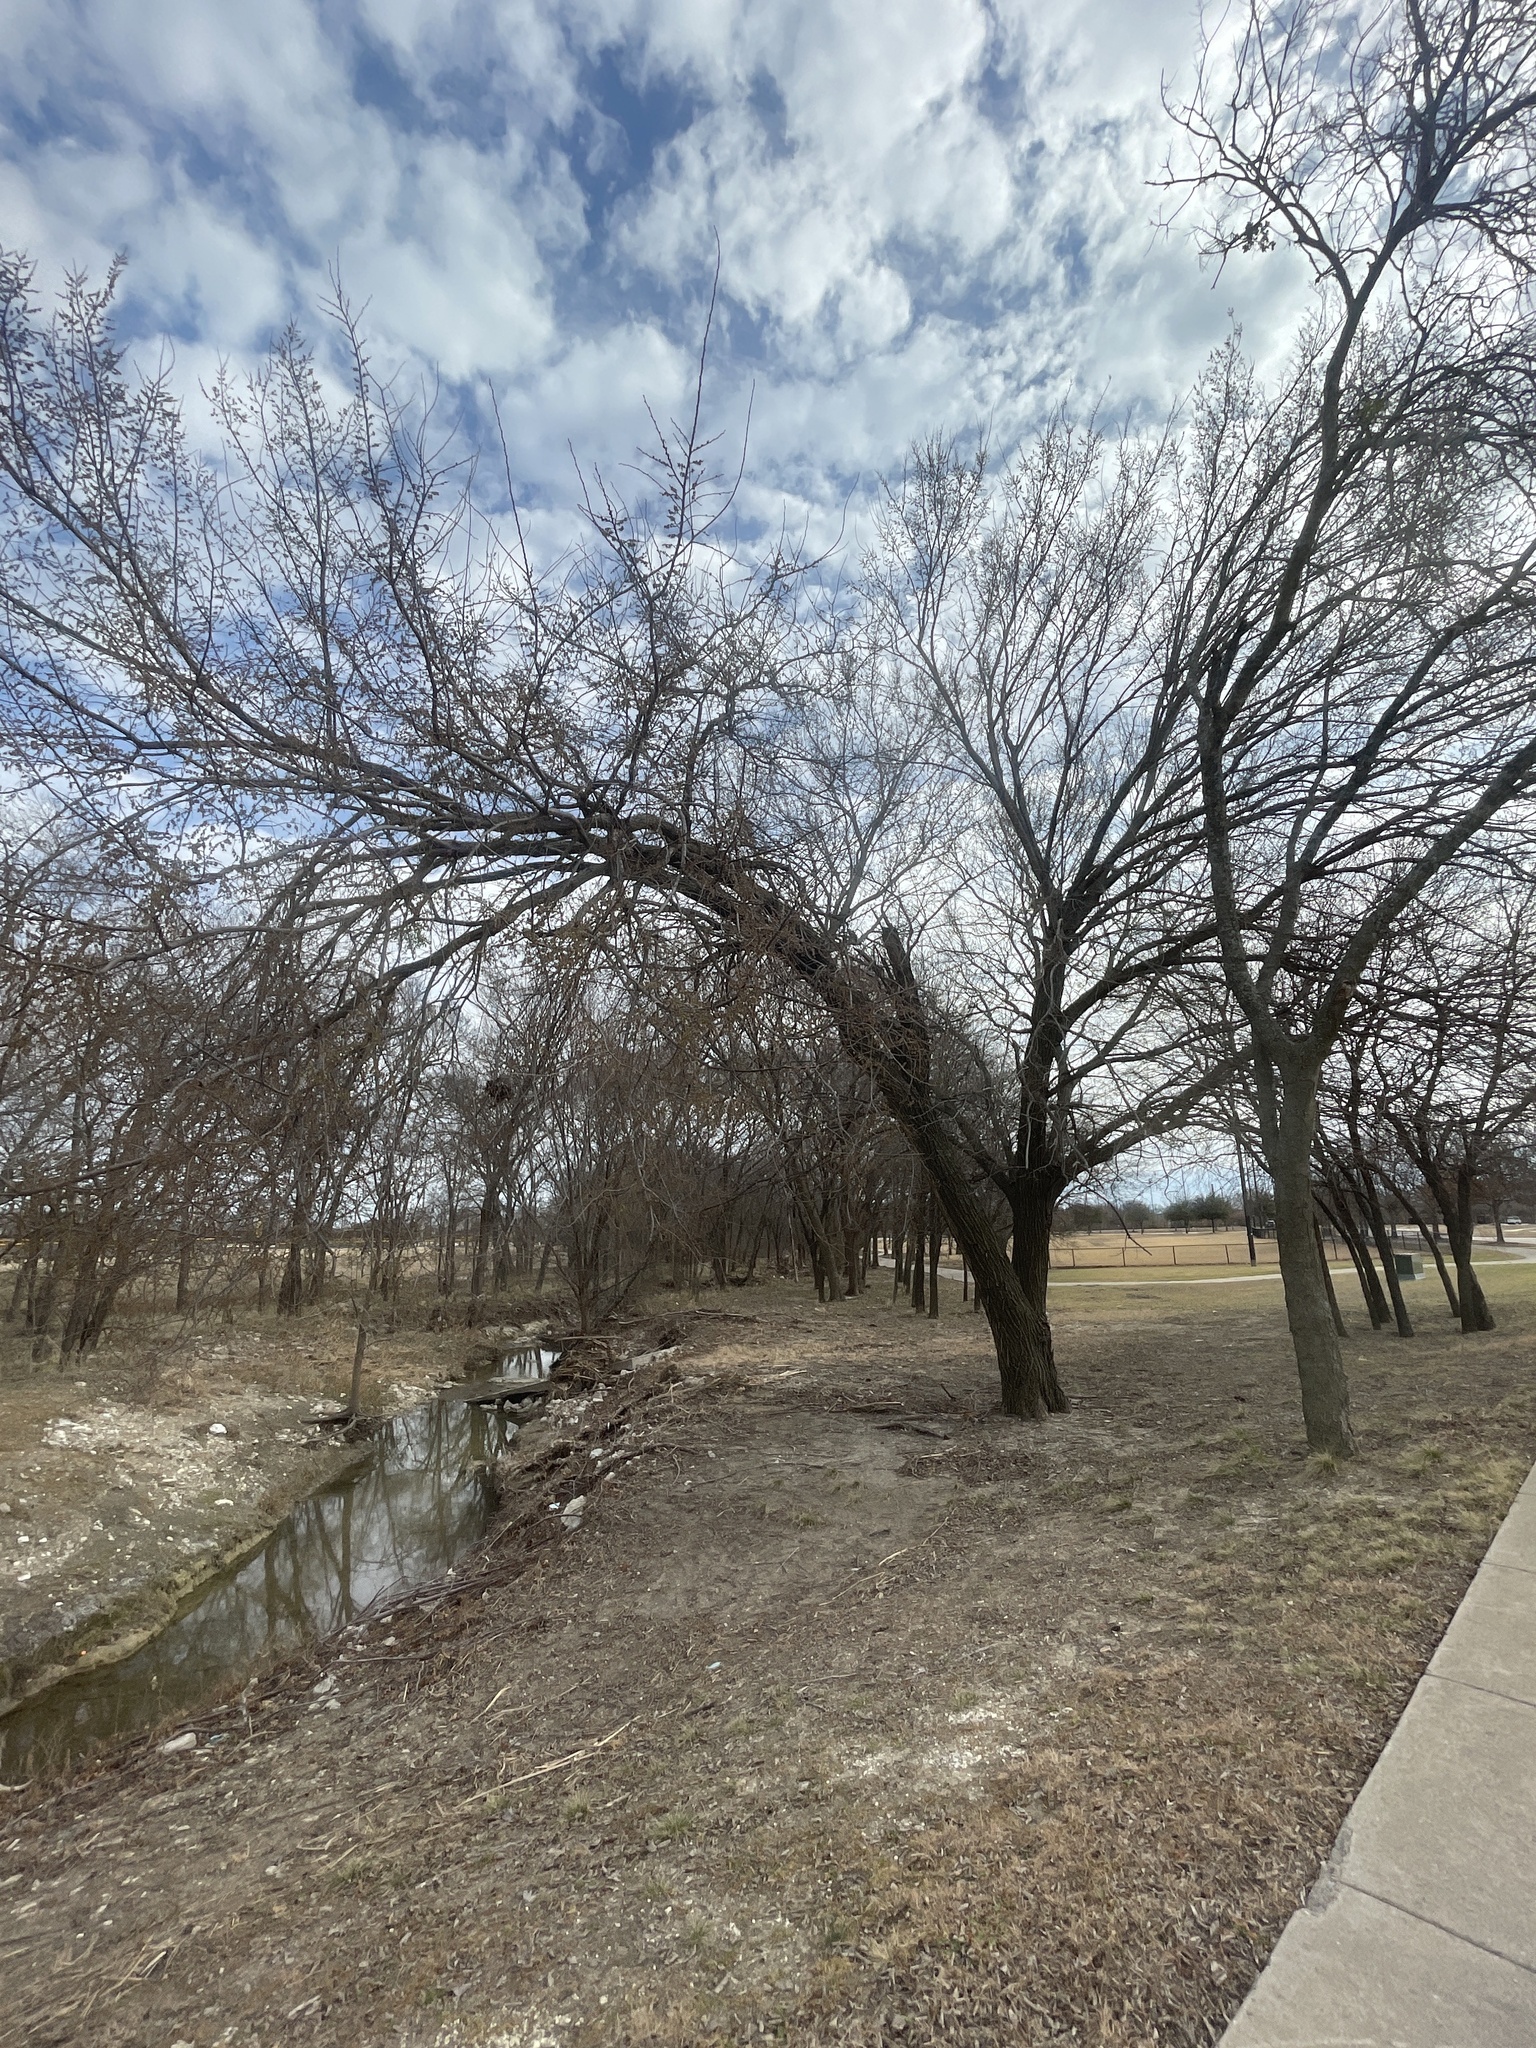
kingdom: Plantae
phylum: Tracheophyta
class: Magnoliopsida
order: Rosales
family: Ulmaceae
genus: Ulmus
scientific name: Ulmus americana
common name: American elm
